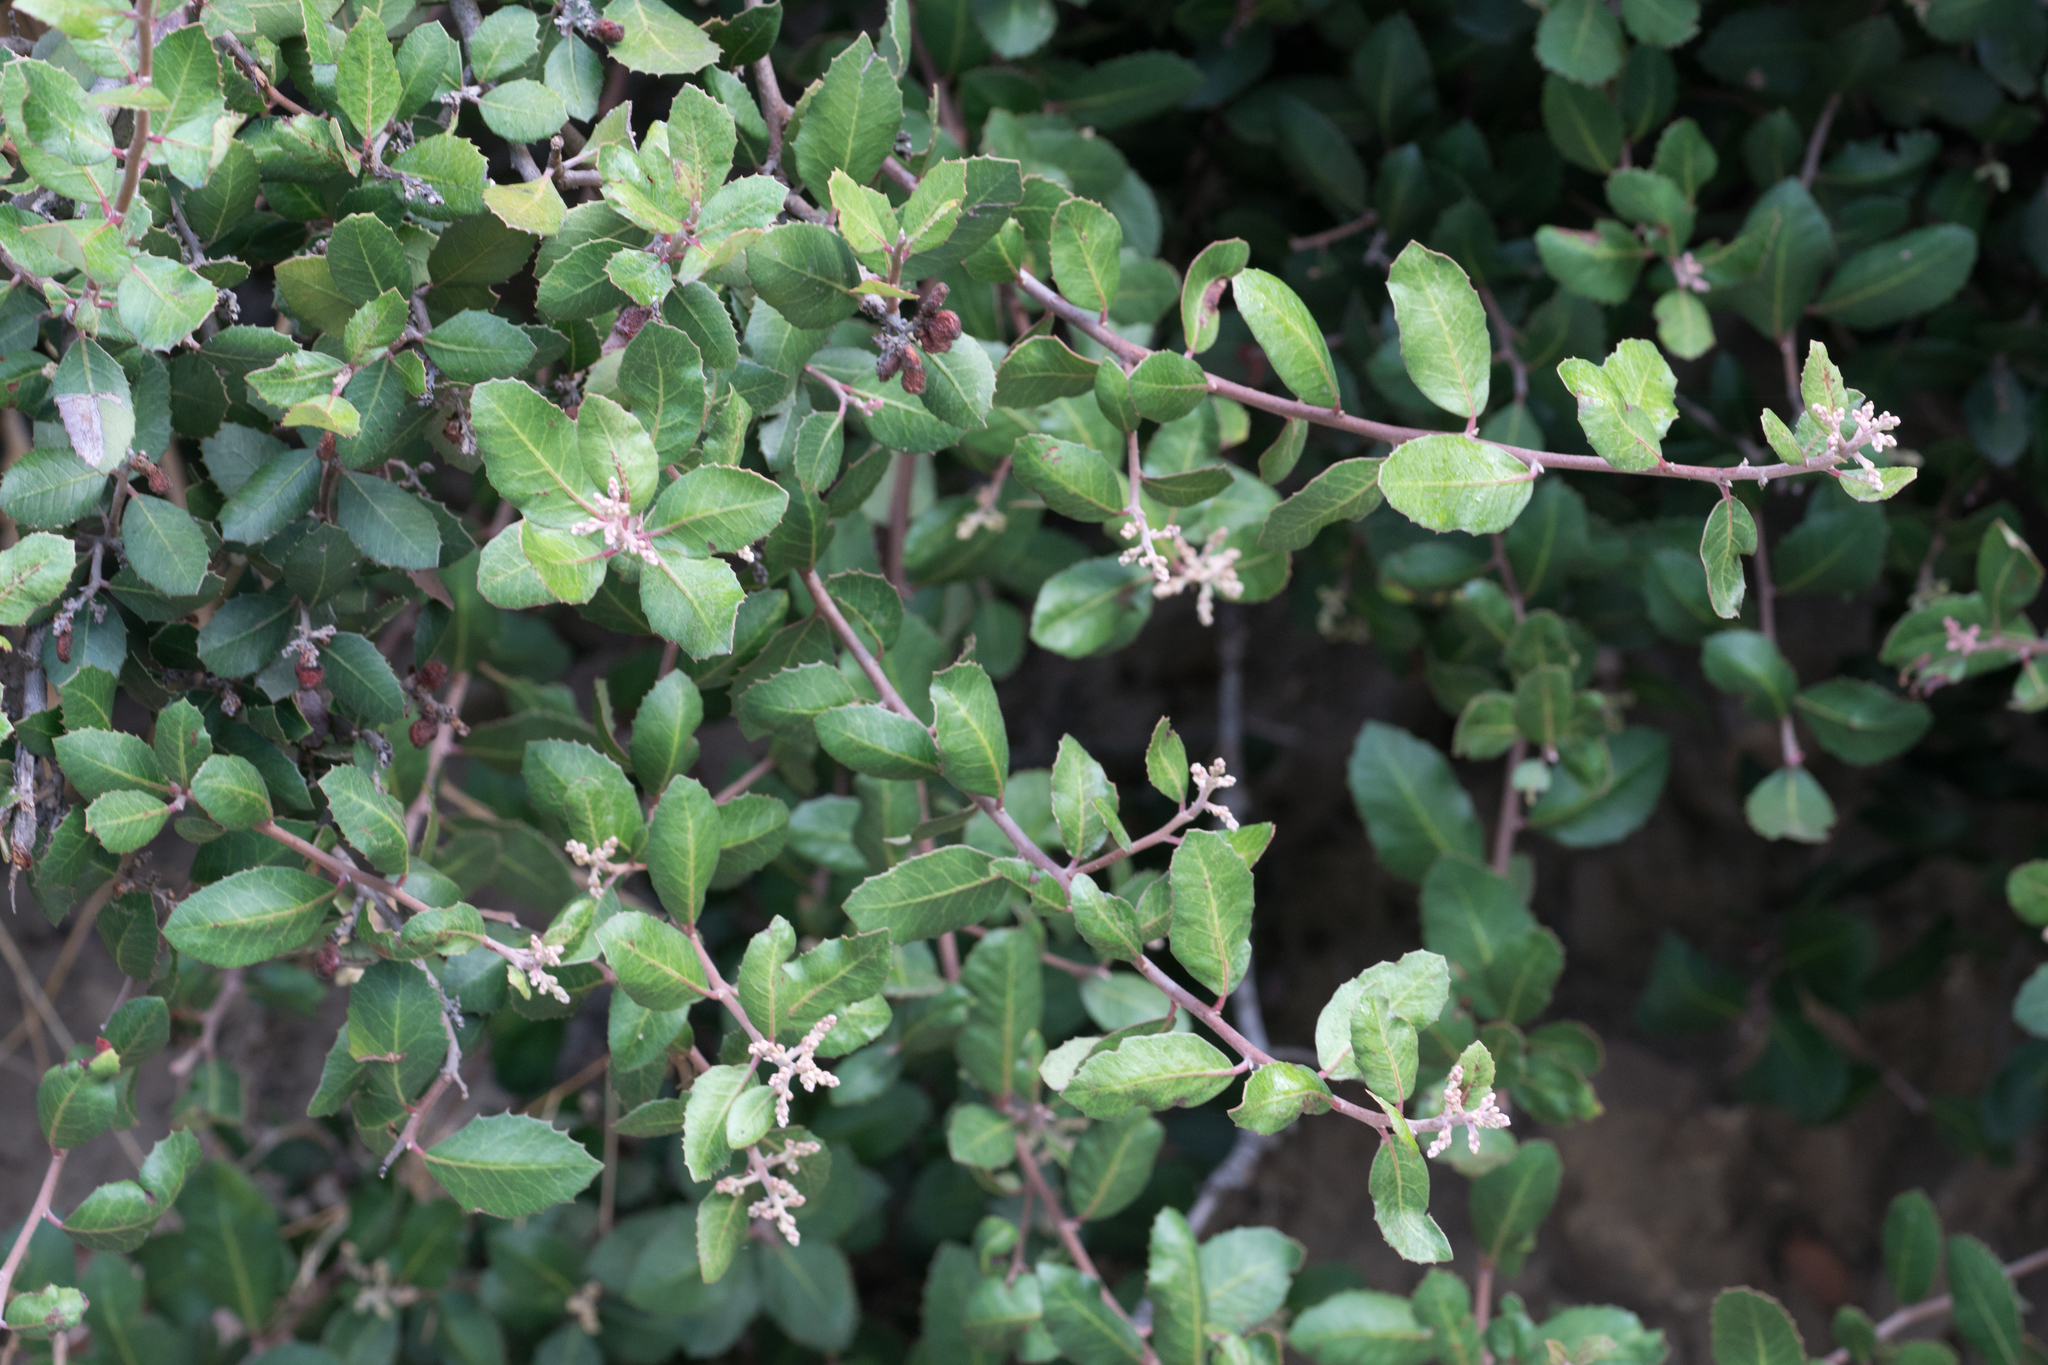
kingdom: Plantae
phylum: Tracheophyta
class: Magnoliopsida
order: Sapindales
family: Anacardiaceae
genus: Rhus
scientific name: Rhus integrifolia
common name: Lemonade sumac
